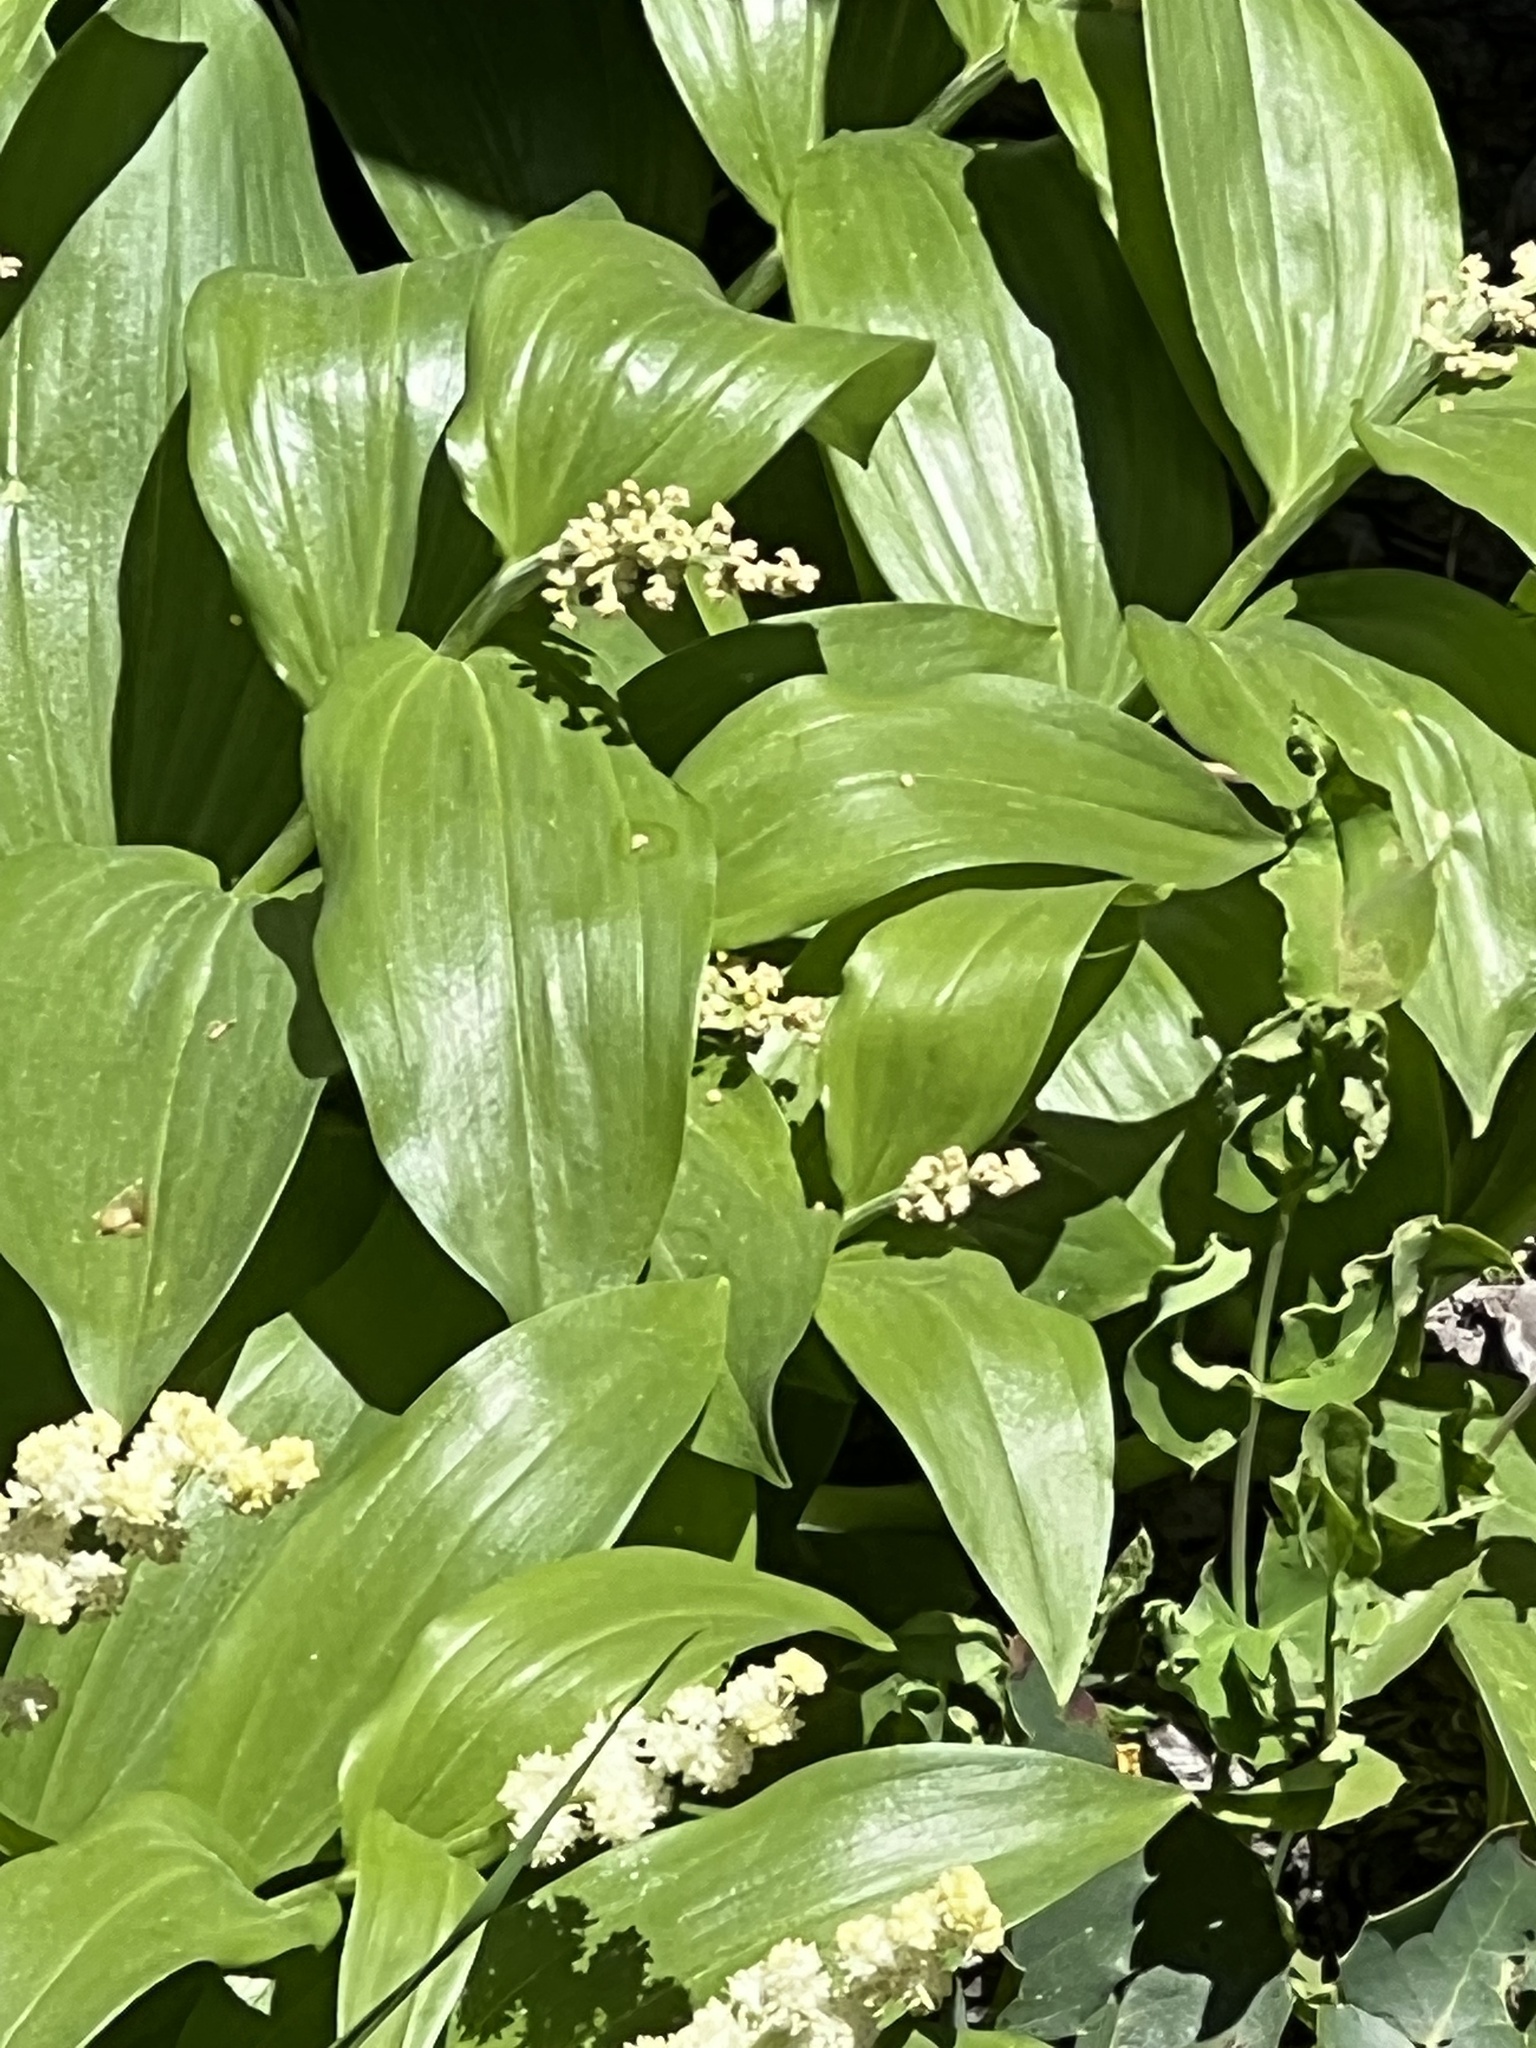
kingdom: Plantae
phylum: Tracheophyta
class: Liliopsida
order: Asparagales
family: Asparagaceae
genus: Maianthemum
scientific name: Maianthemum racemosum
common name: False spikenard
